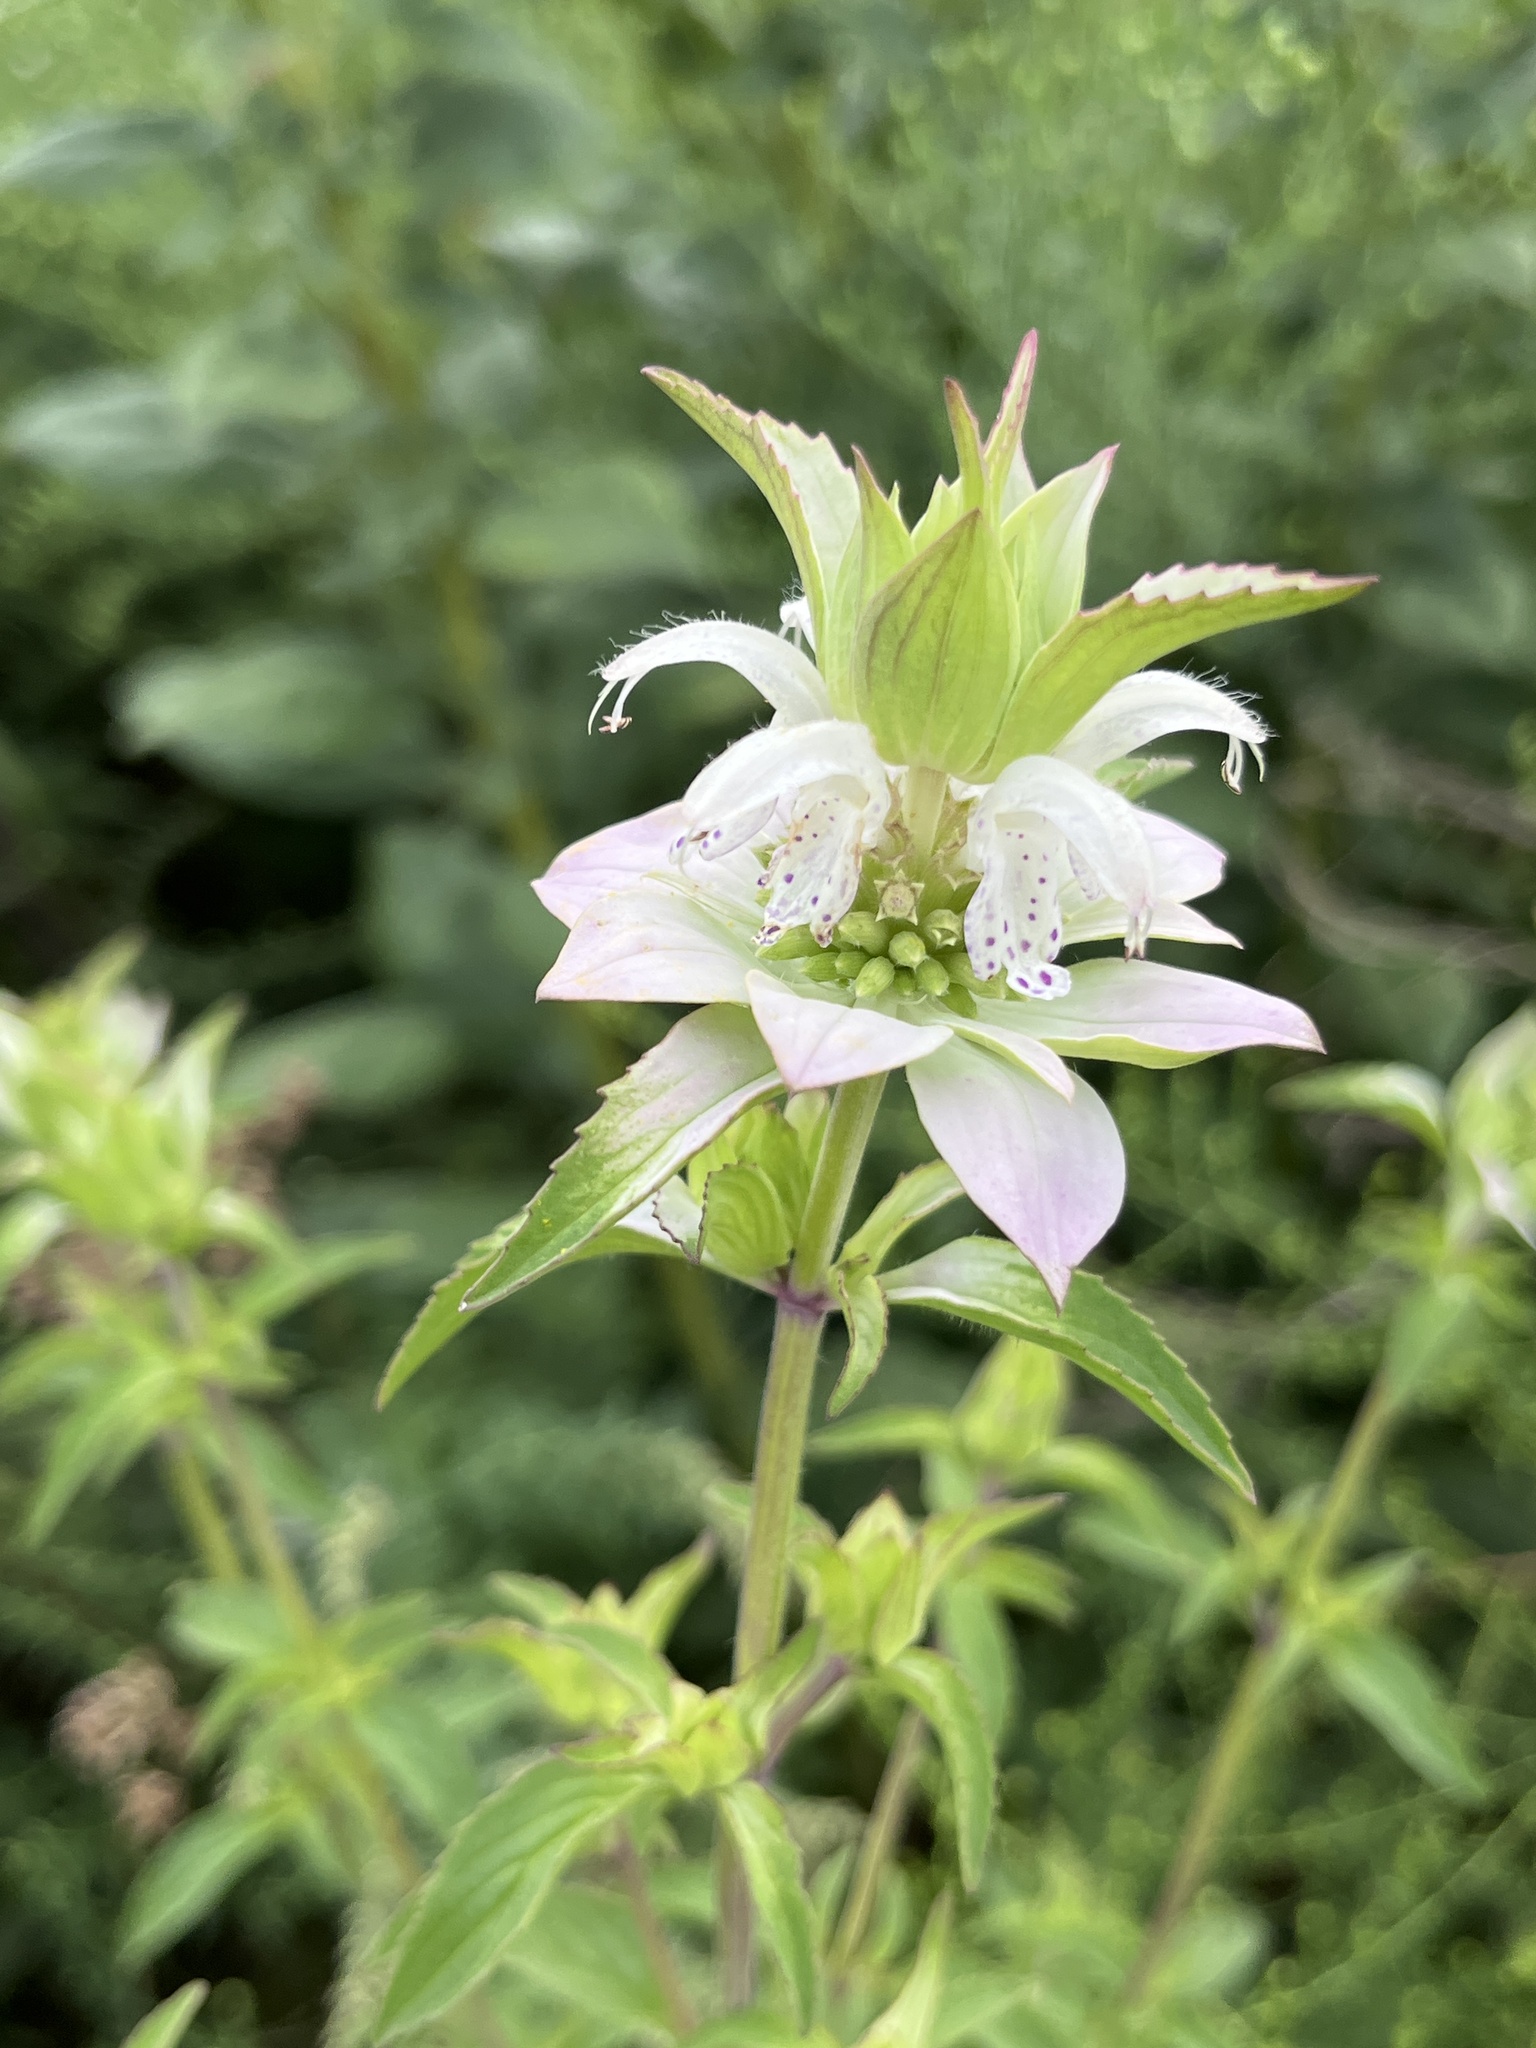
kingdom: Plantae
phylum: Tracheophyta
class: Magnoliopsida
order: Lamiales
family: Lamiaceae
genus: Monarda
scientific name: Monarda punctata
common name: Dotted monarda
